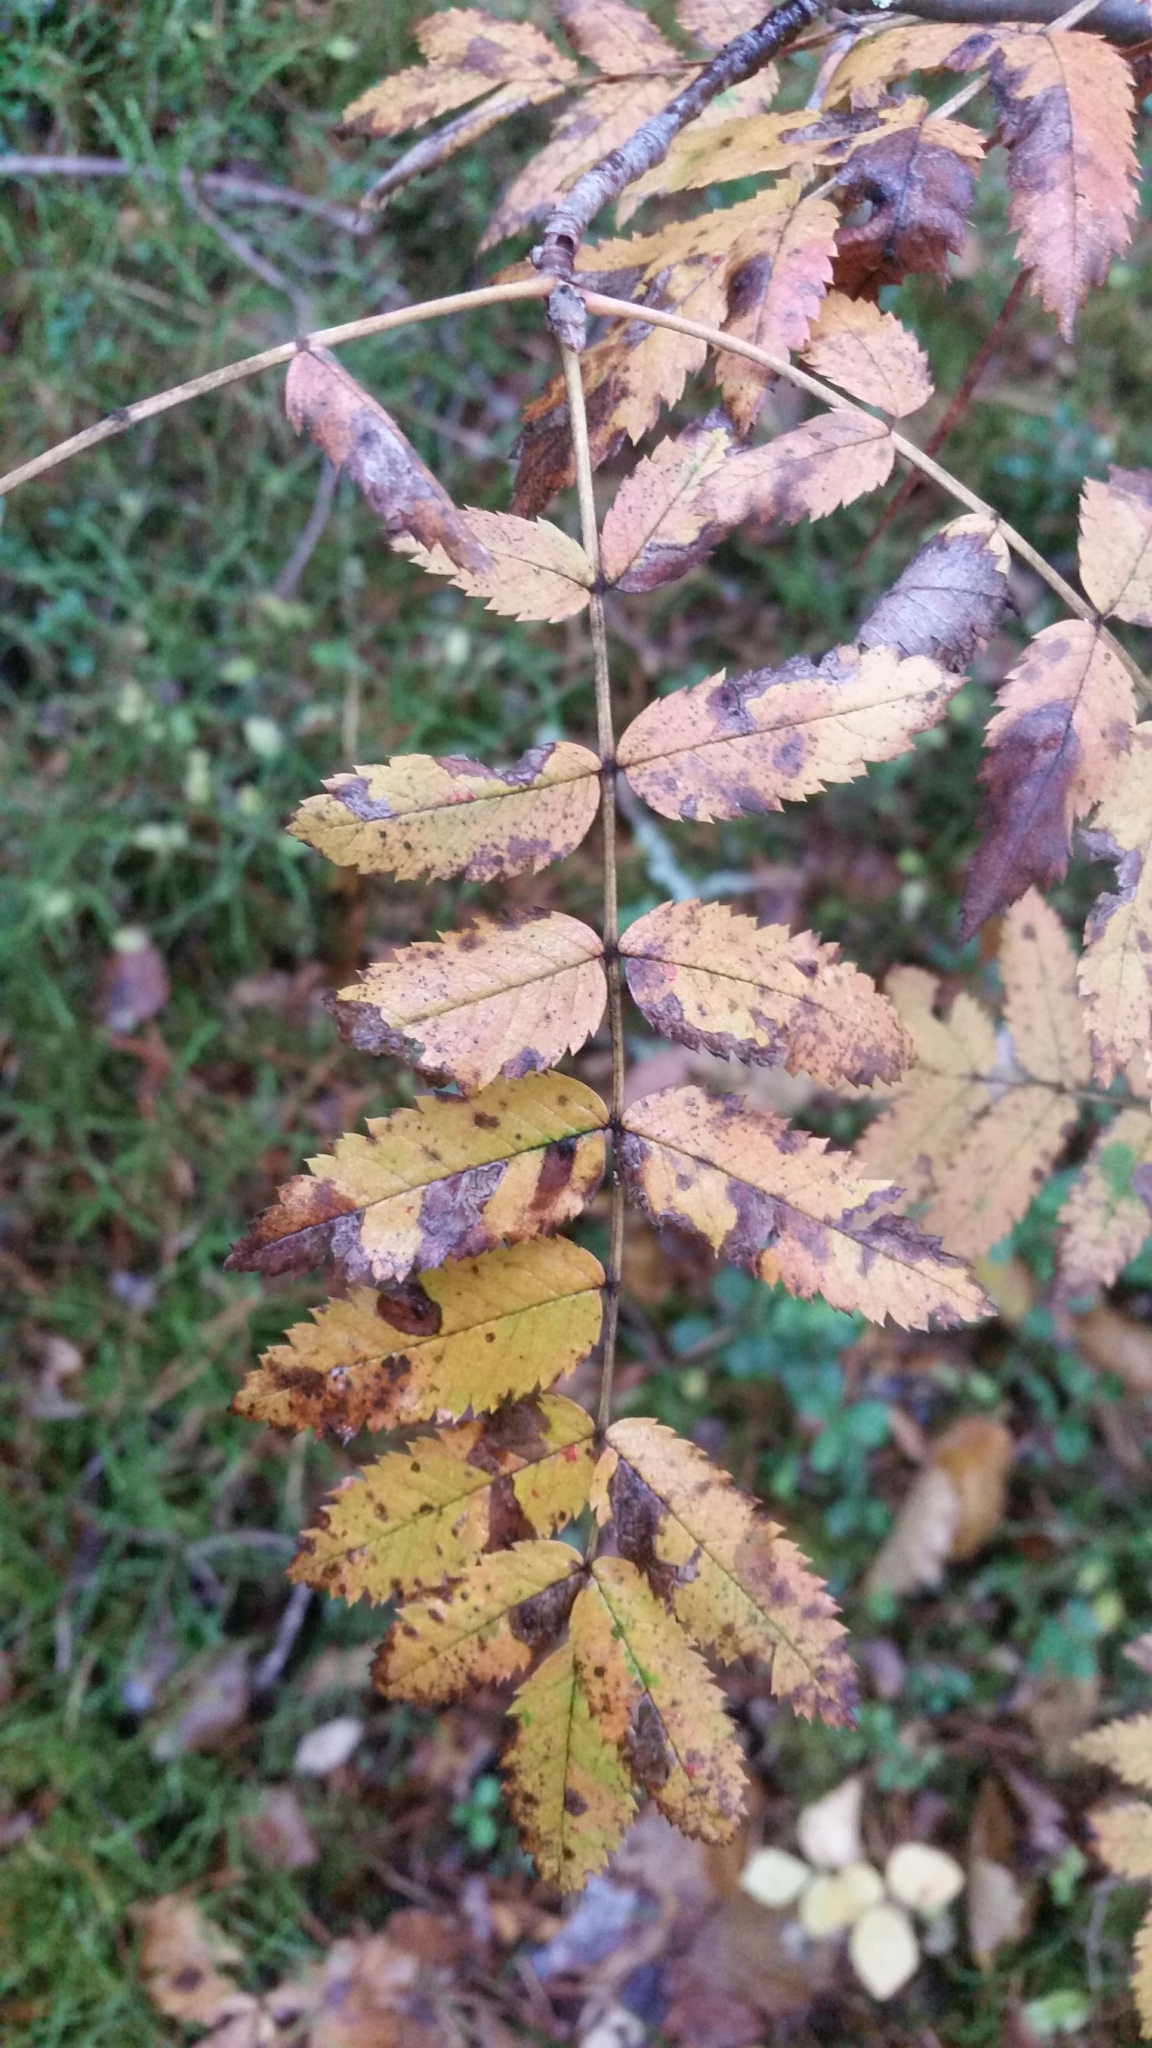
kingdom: Plantae
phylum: Tracheophyta
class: Magnoliopsida
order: Rosales
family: Rosaceae
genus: Sorbus
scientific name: Sorbus aucuparia
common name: Rowan
